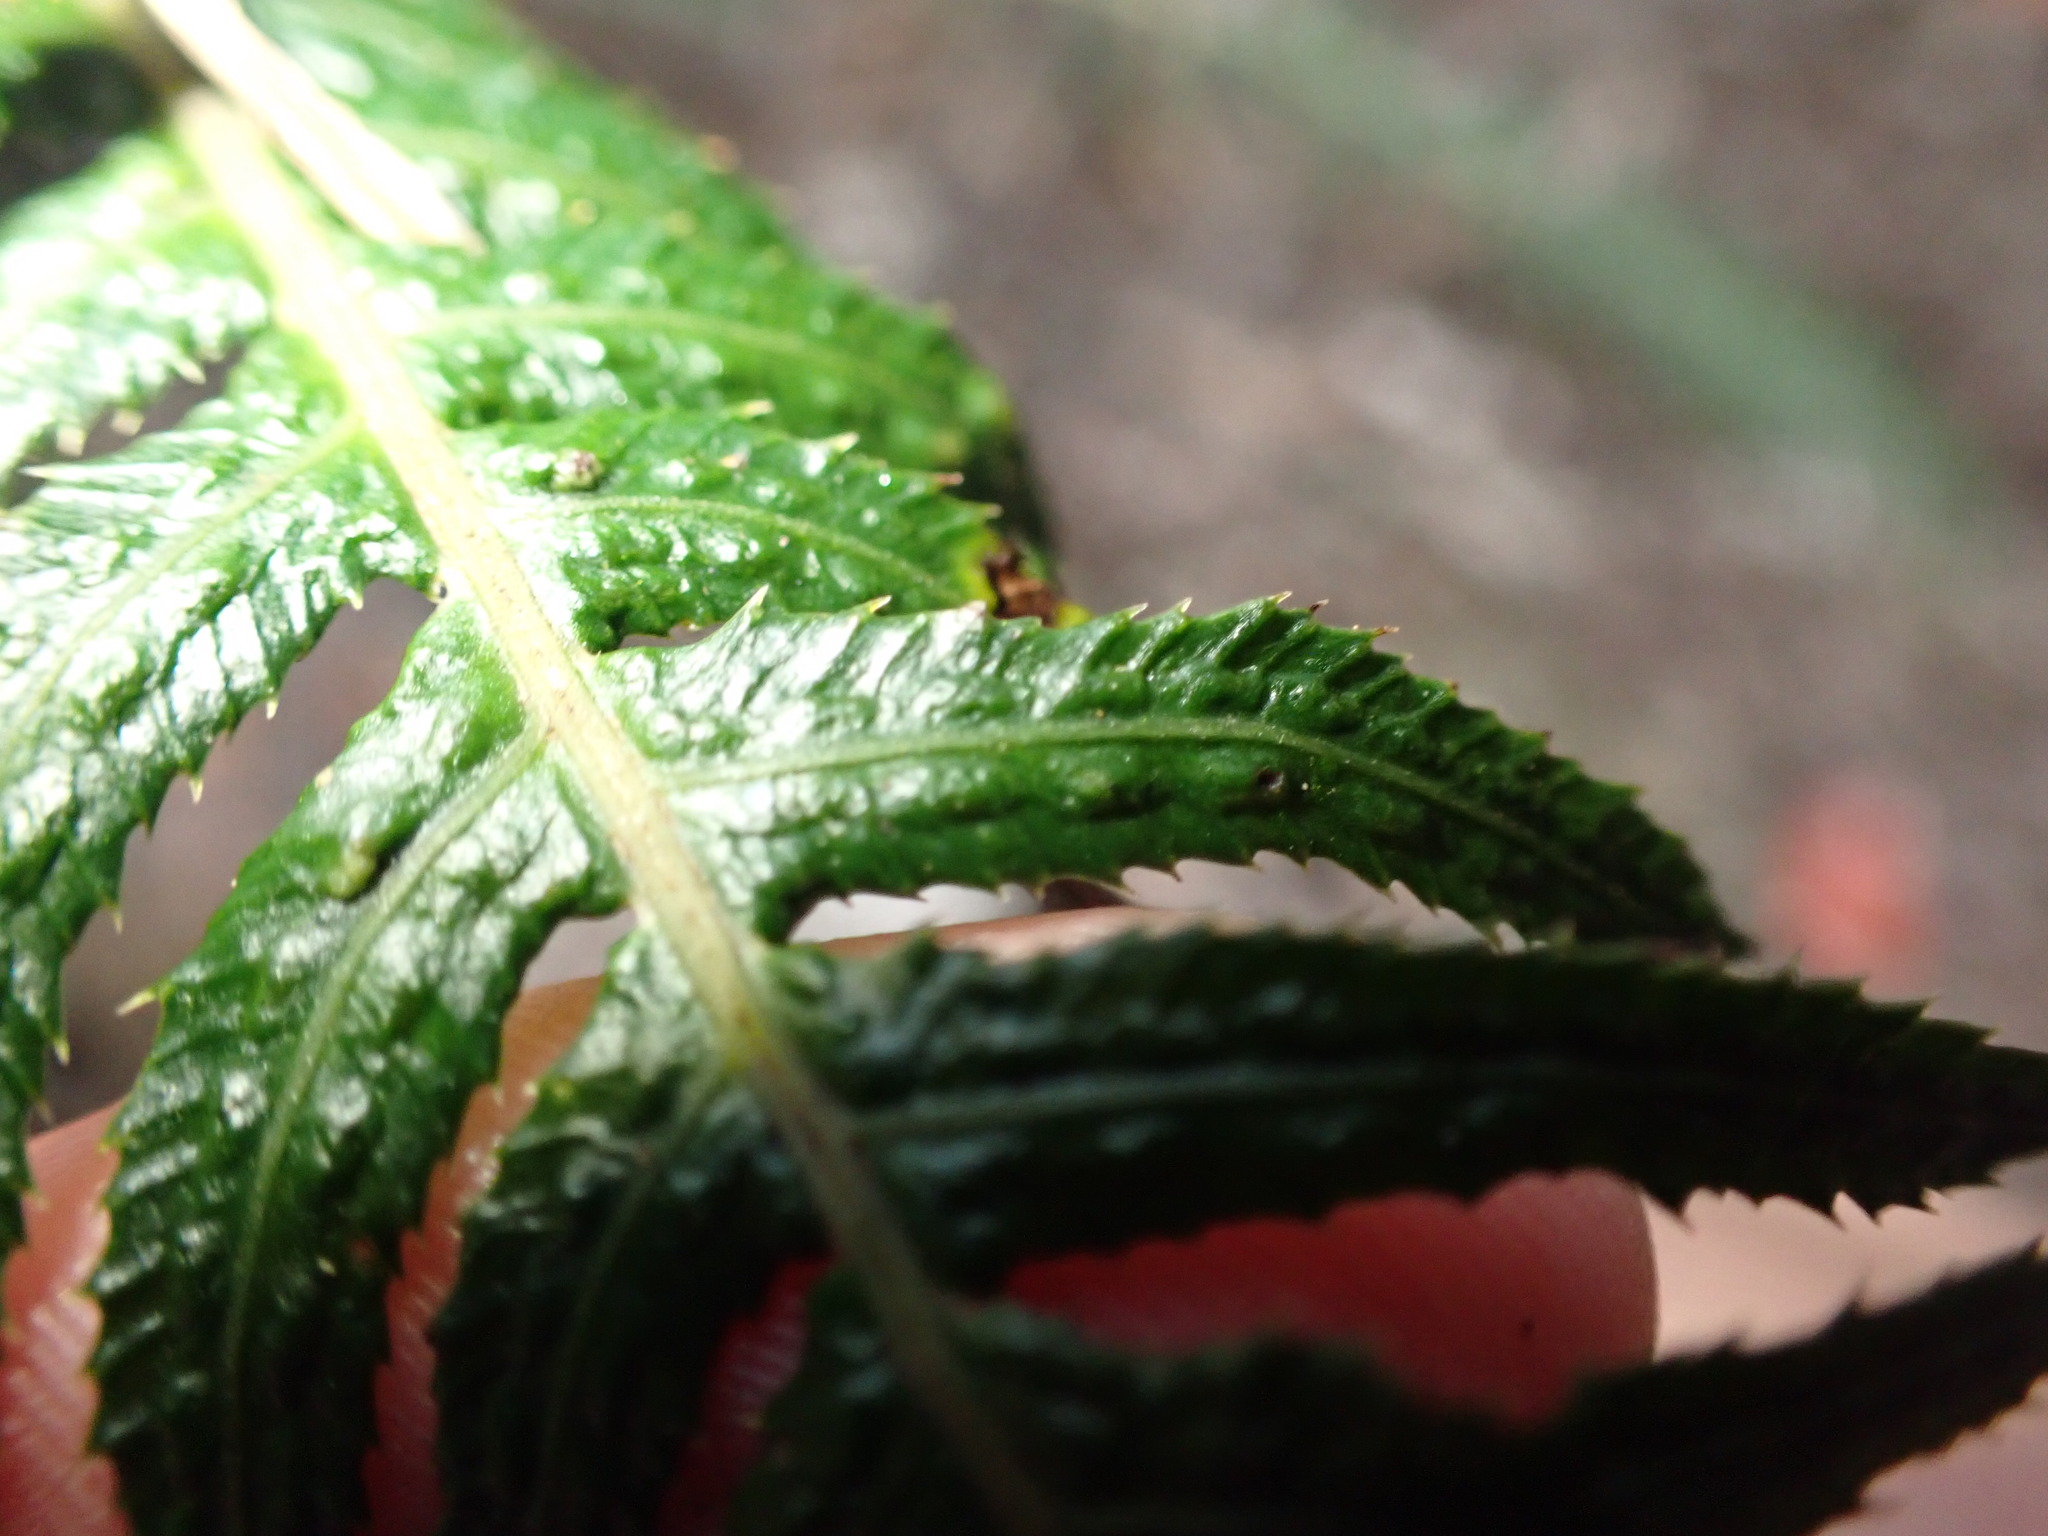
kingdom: Plantae
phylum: Tracheophyta
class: Polypodiopsida
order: Polypodiales
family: Blechnaceae
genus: Doodia
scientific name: Doodia australis
